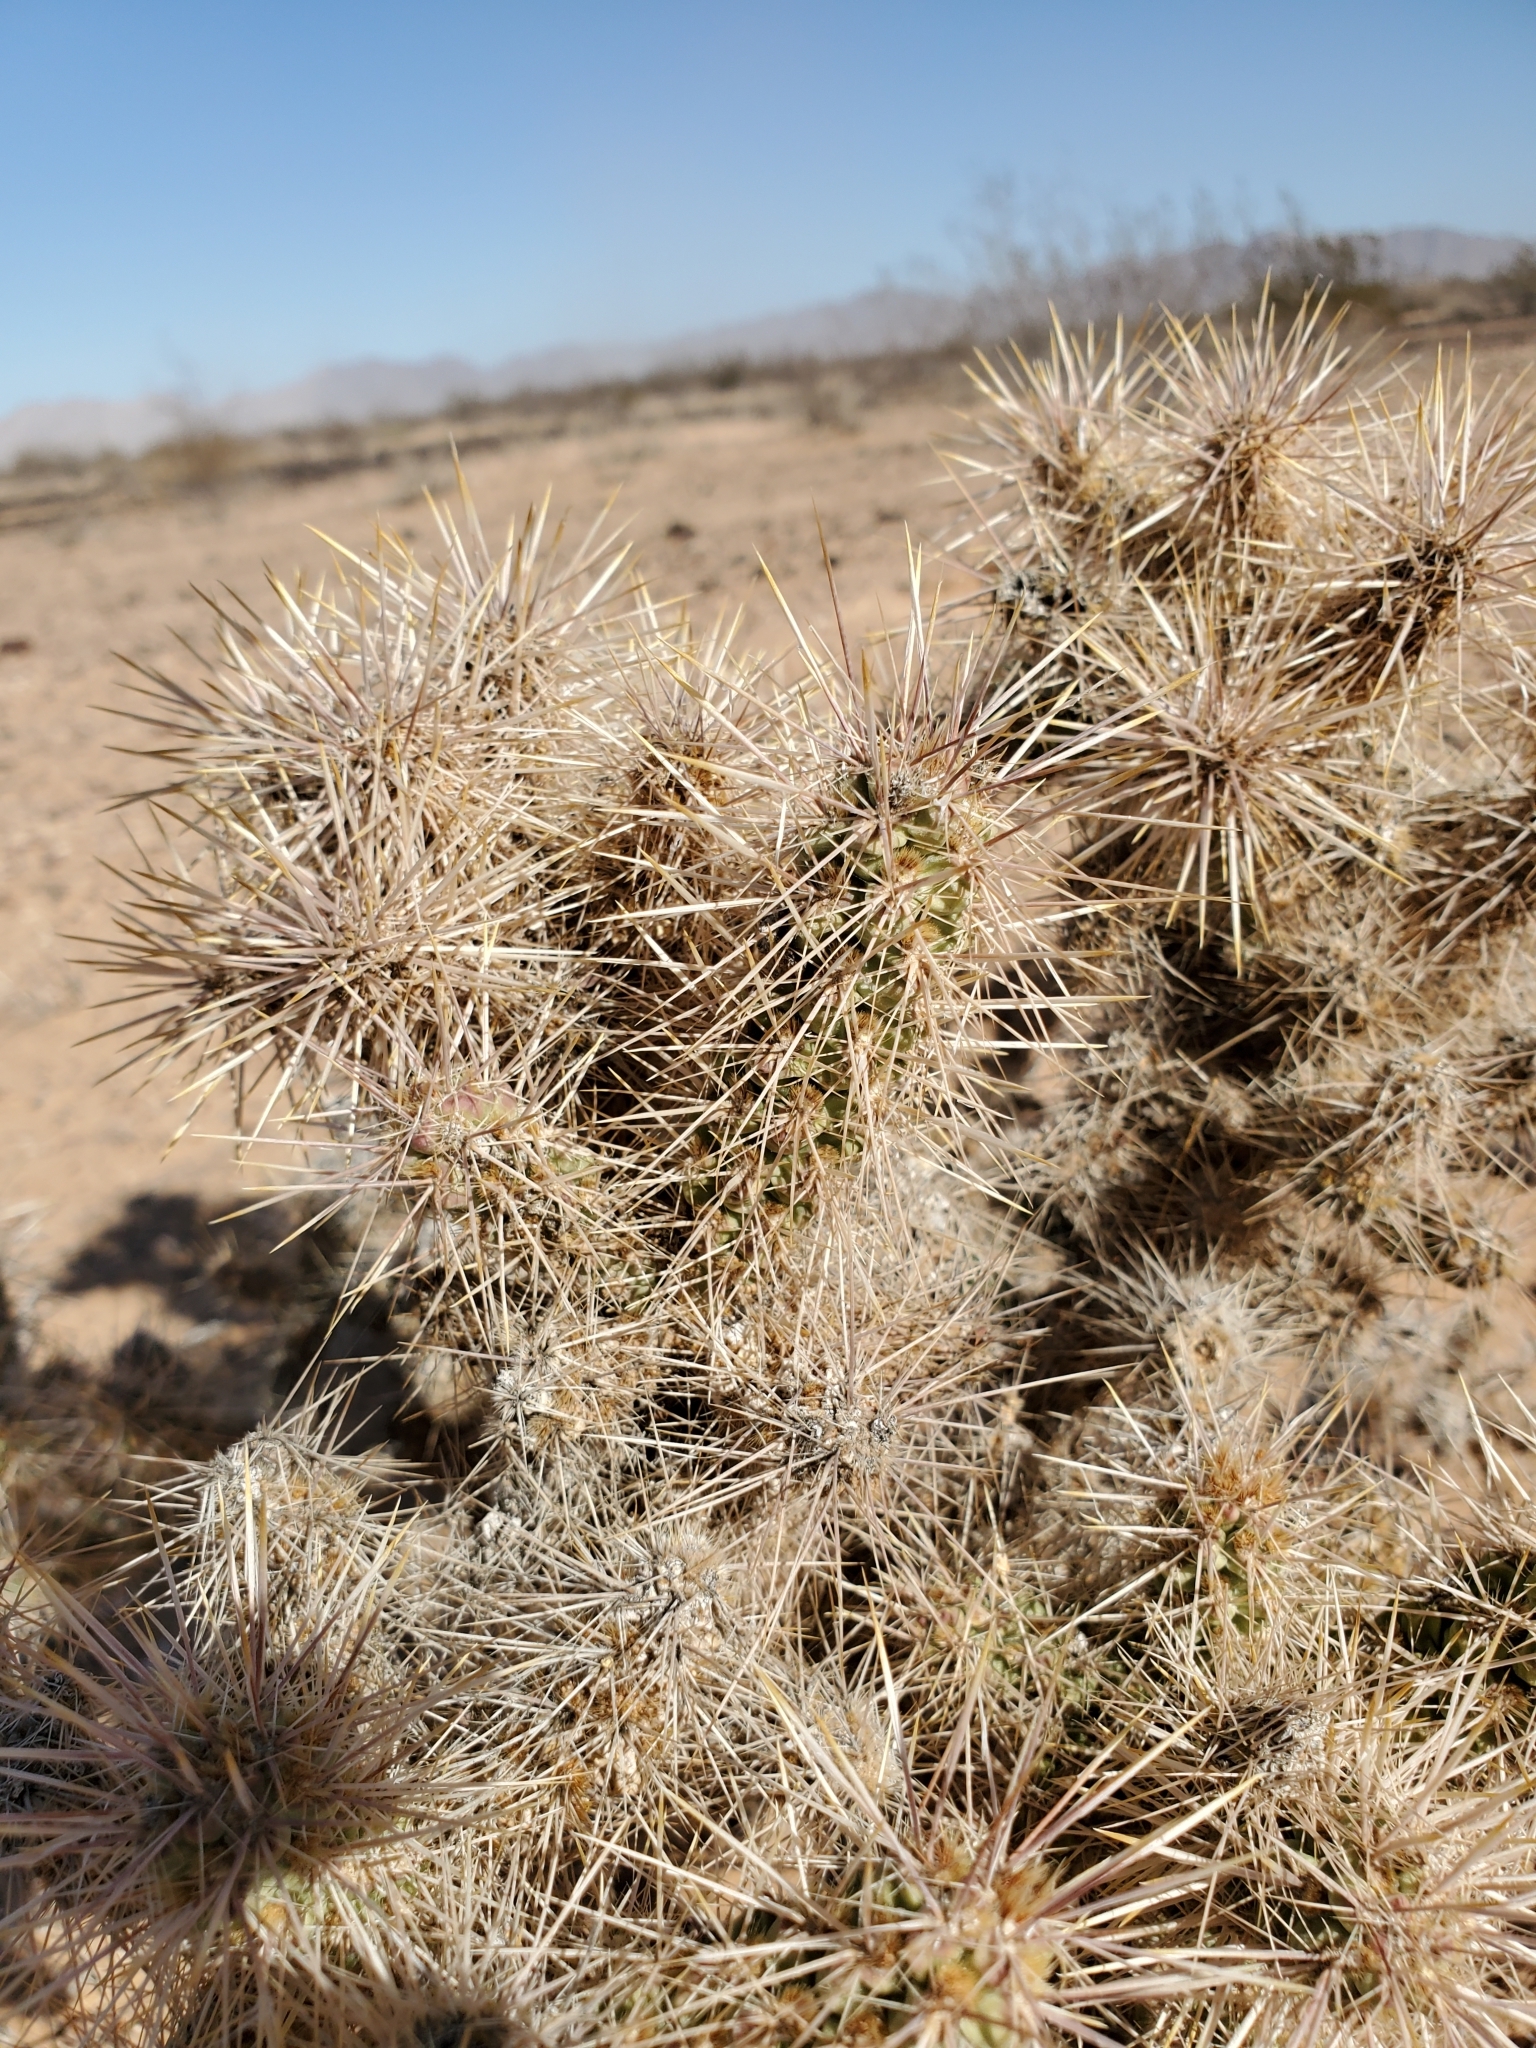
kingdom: Plantae
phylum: Tracheophyta
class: Magnoliopsida
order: Caryophyllales
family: Cactaceae
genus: Cylindropuntia
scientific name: Cylindropuntia echinocarpa
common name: Ground cholla
